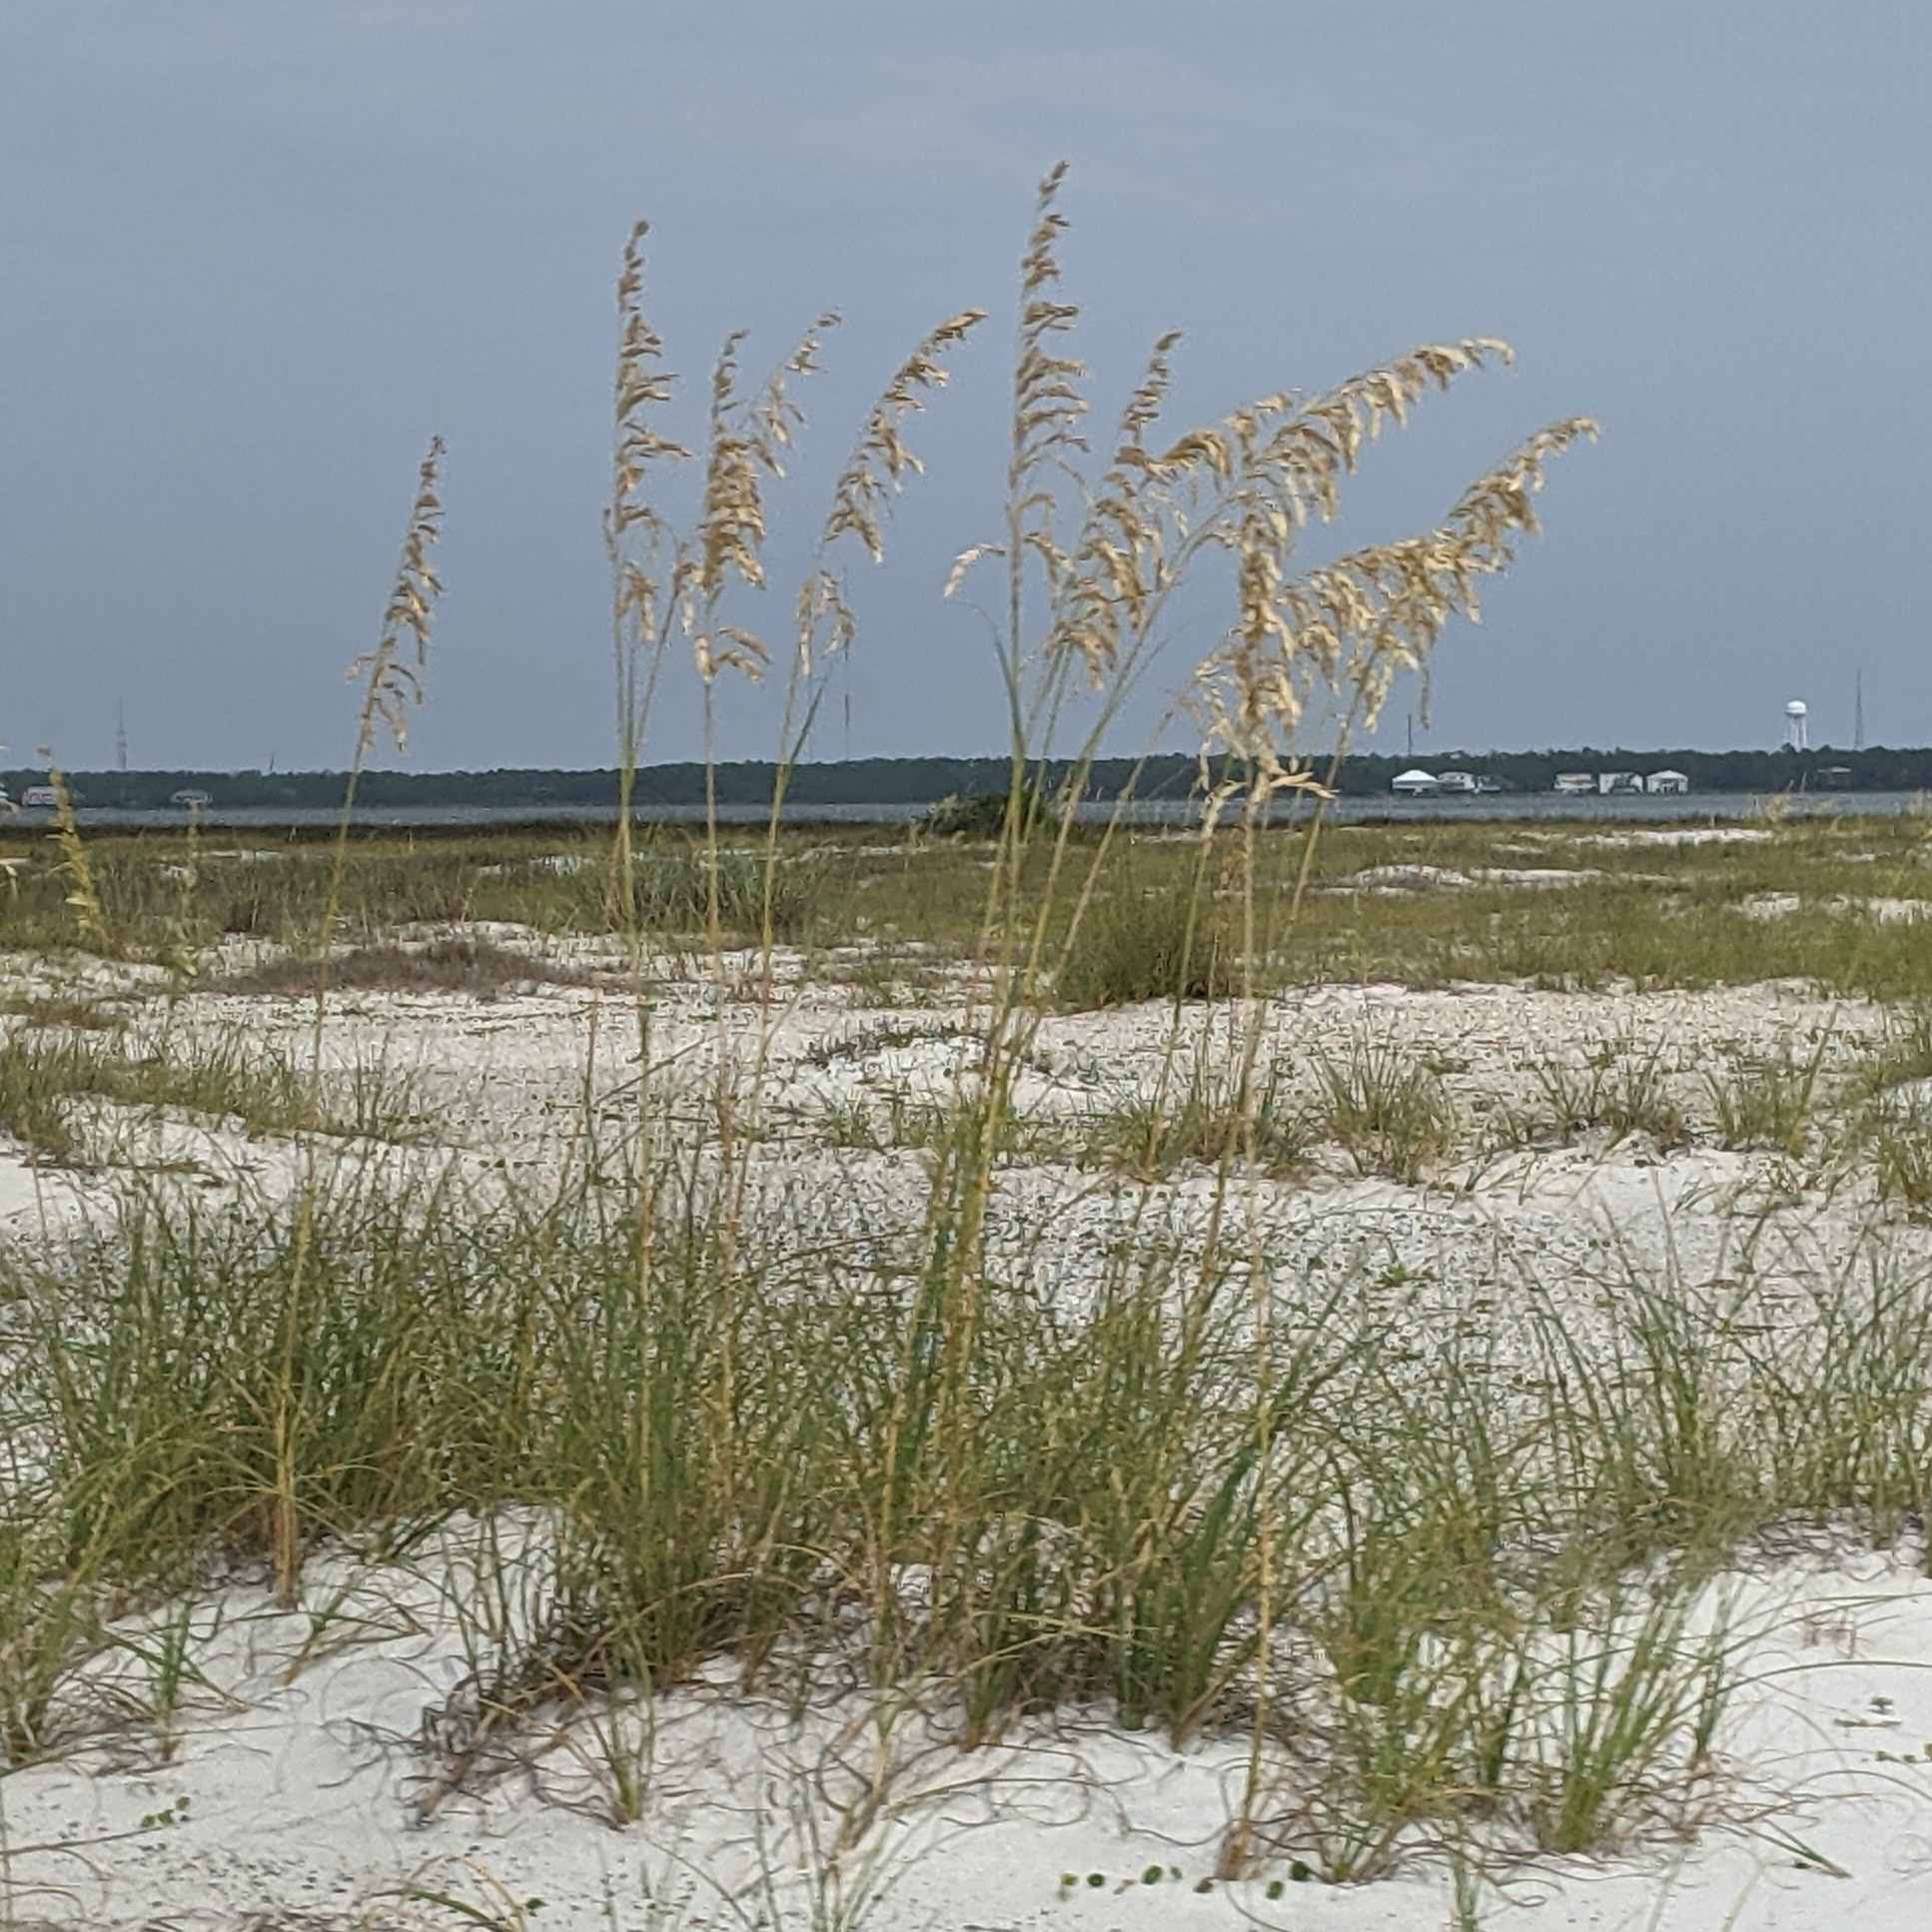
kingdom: Plantae
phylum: Tracheophyta
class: Liliopsida
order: Poales
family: Poaceae
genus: Uniola
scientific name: Uniola paniculata
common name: Seaside-oats
